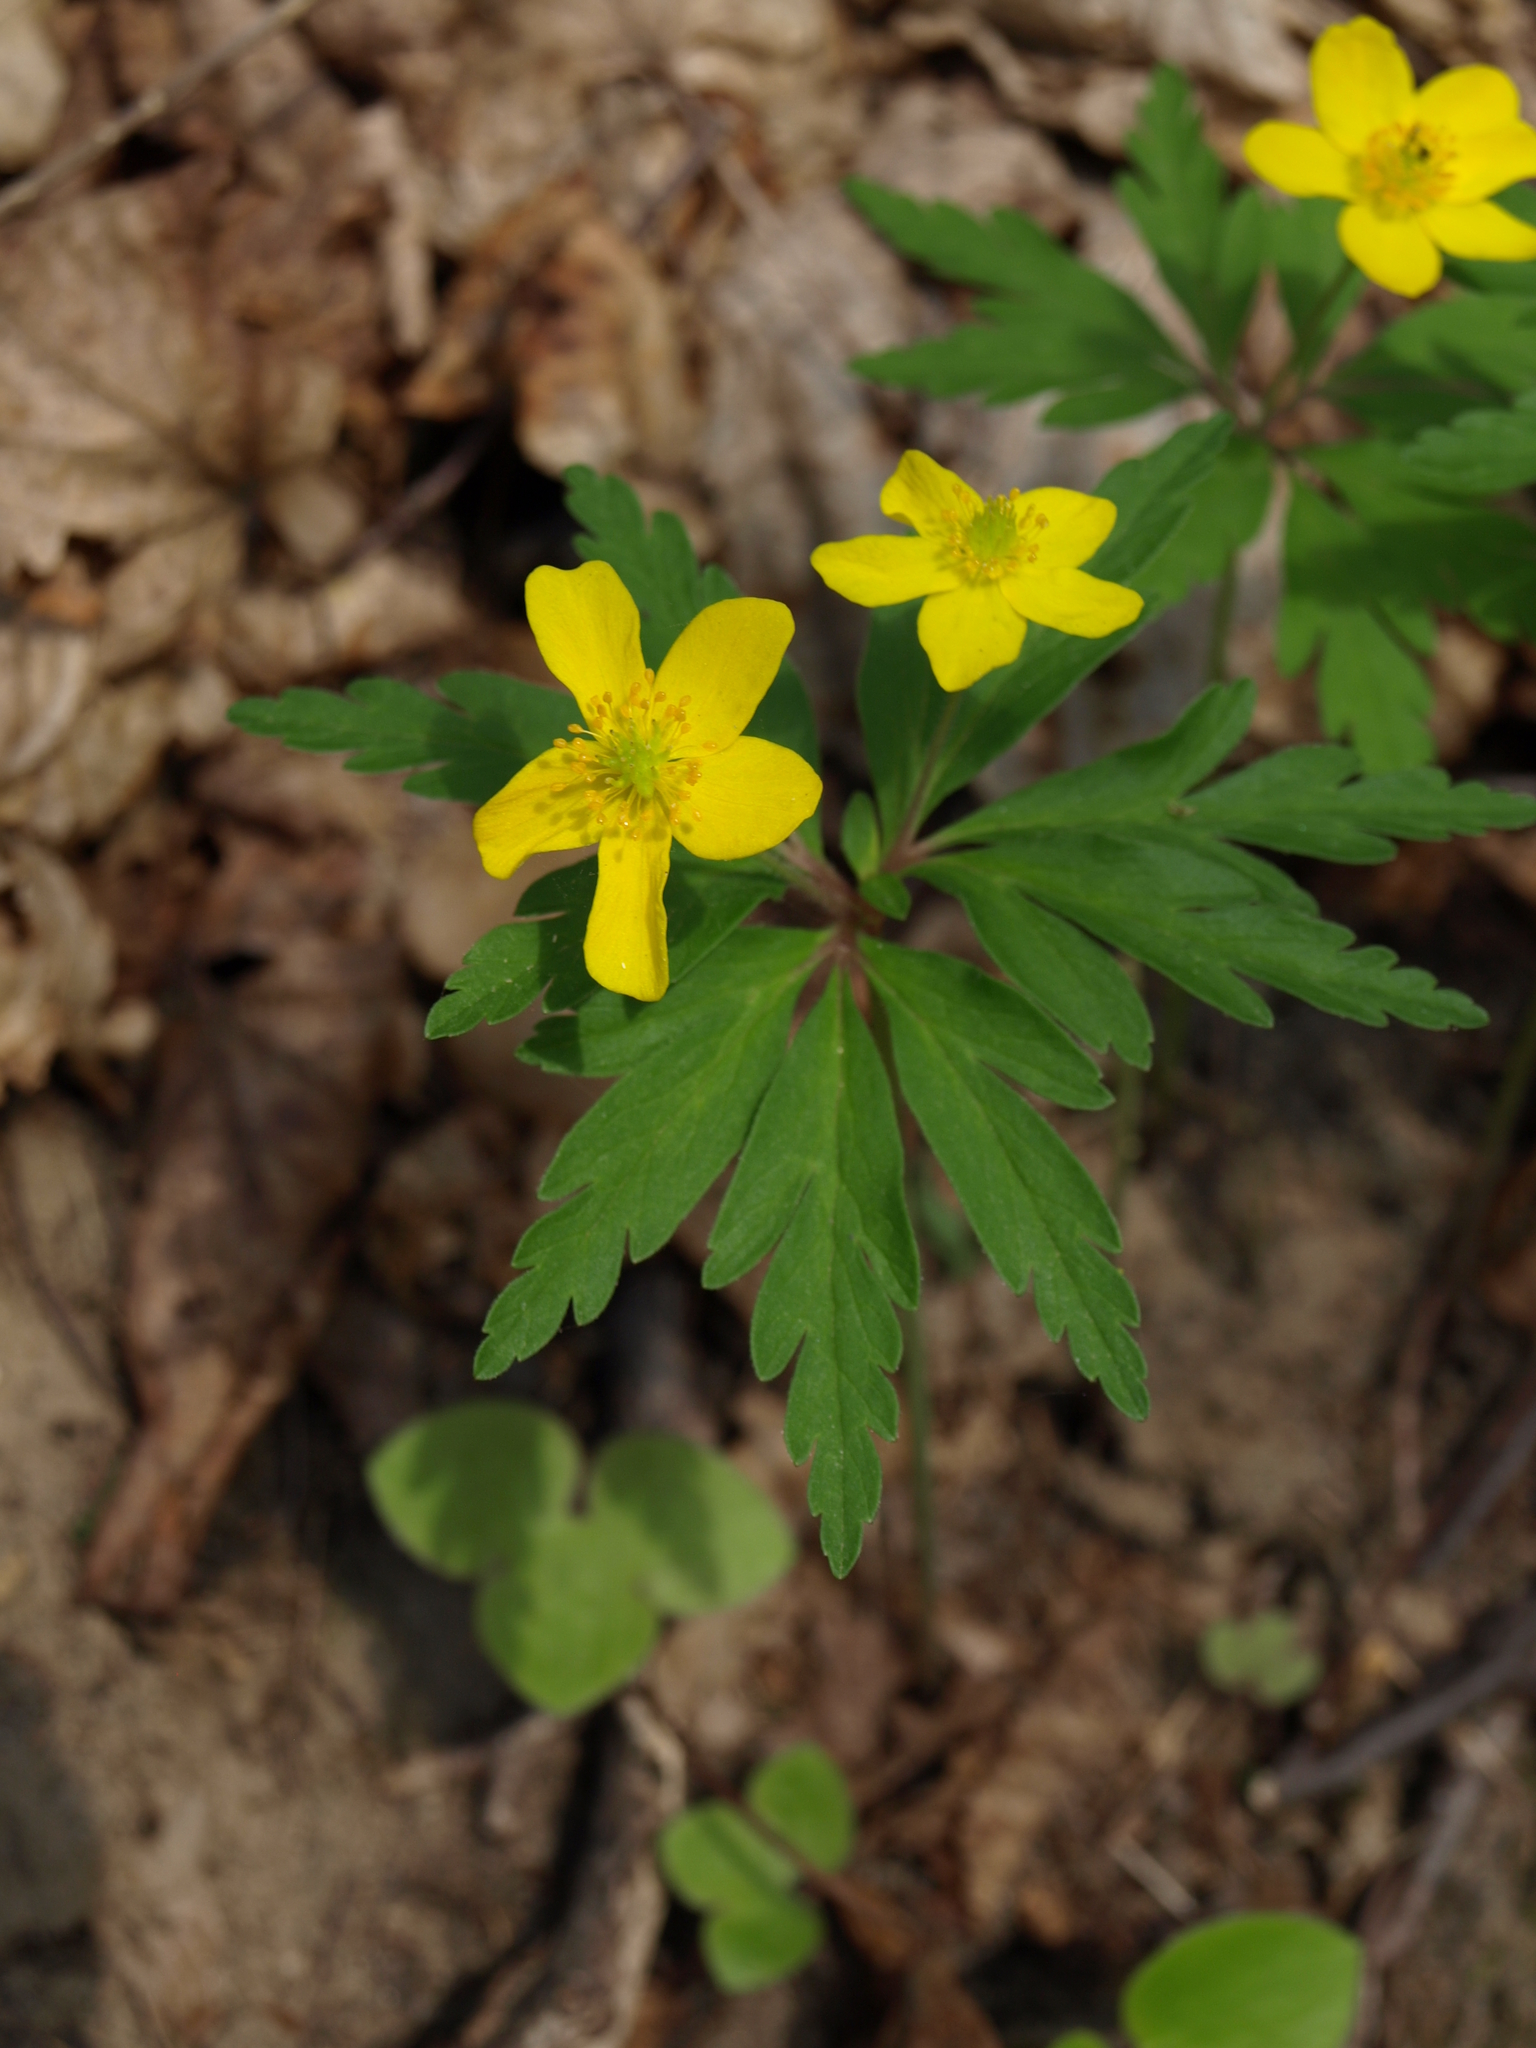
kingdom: Plantae
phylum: Tracheophyta
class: Magnoliopsida
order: Ranunculales
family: Ranunculaceae
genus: Anemone
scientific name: Anemone ranunculoides
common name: Yellow anemone
